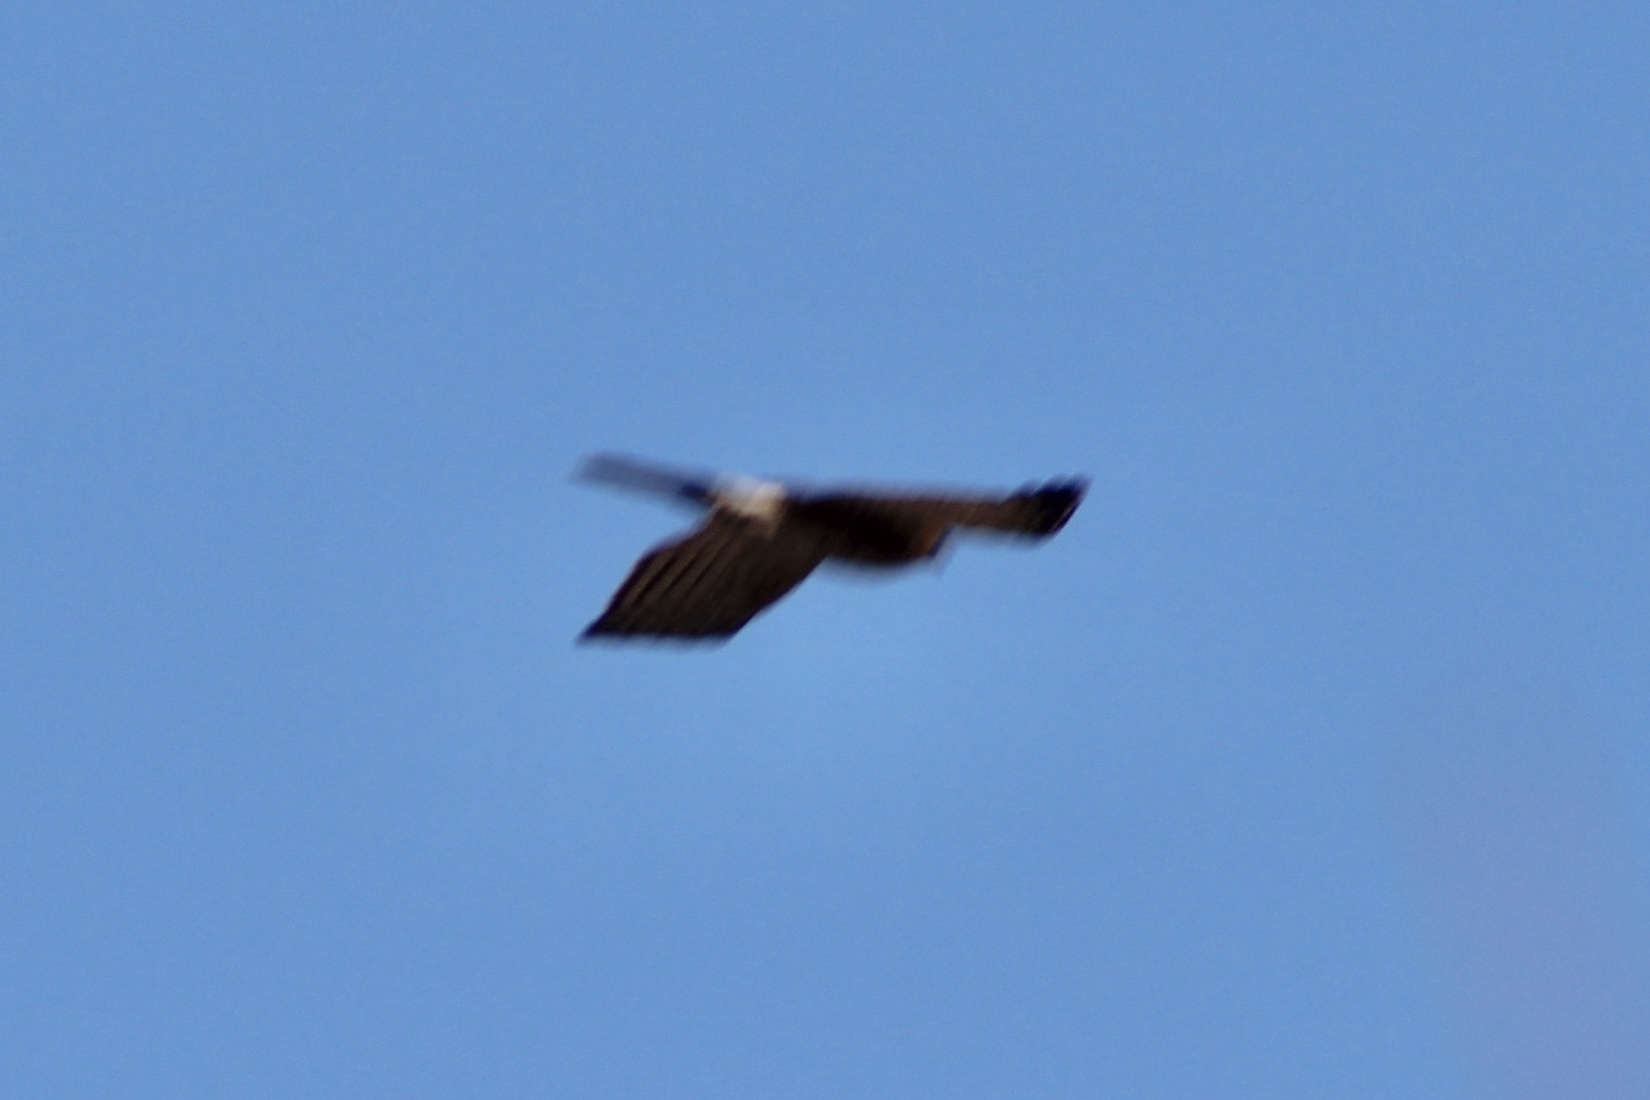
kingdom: Animalia
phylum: Chordata
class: Aves
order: Accipitriformes
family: Accipitridae
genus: Accipiter
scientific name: Accipiter cooperii
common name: Cooper's hawk
